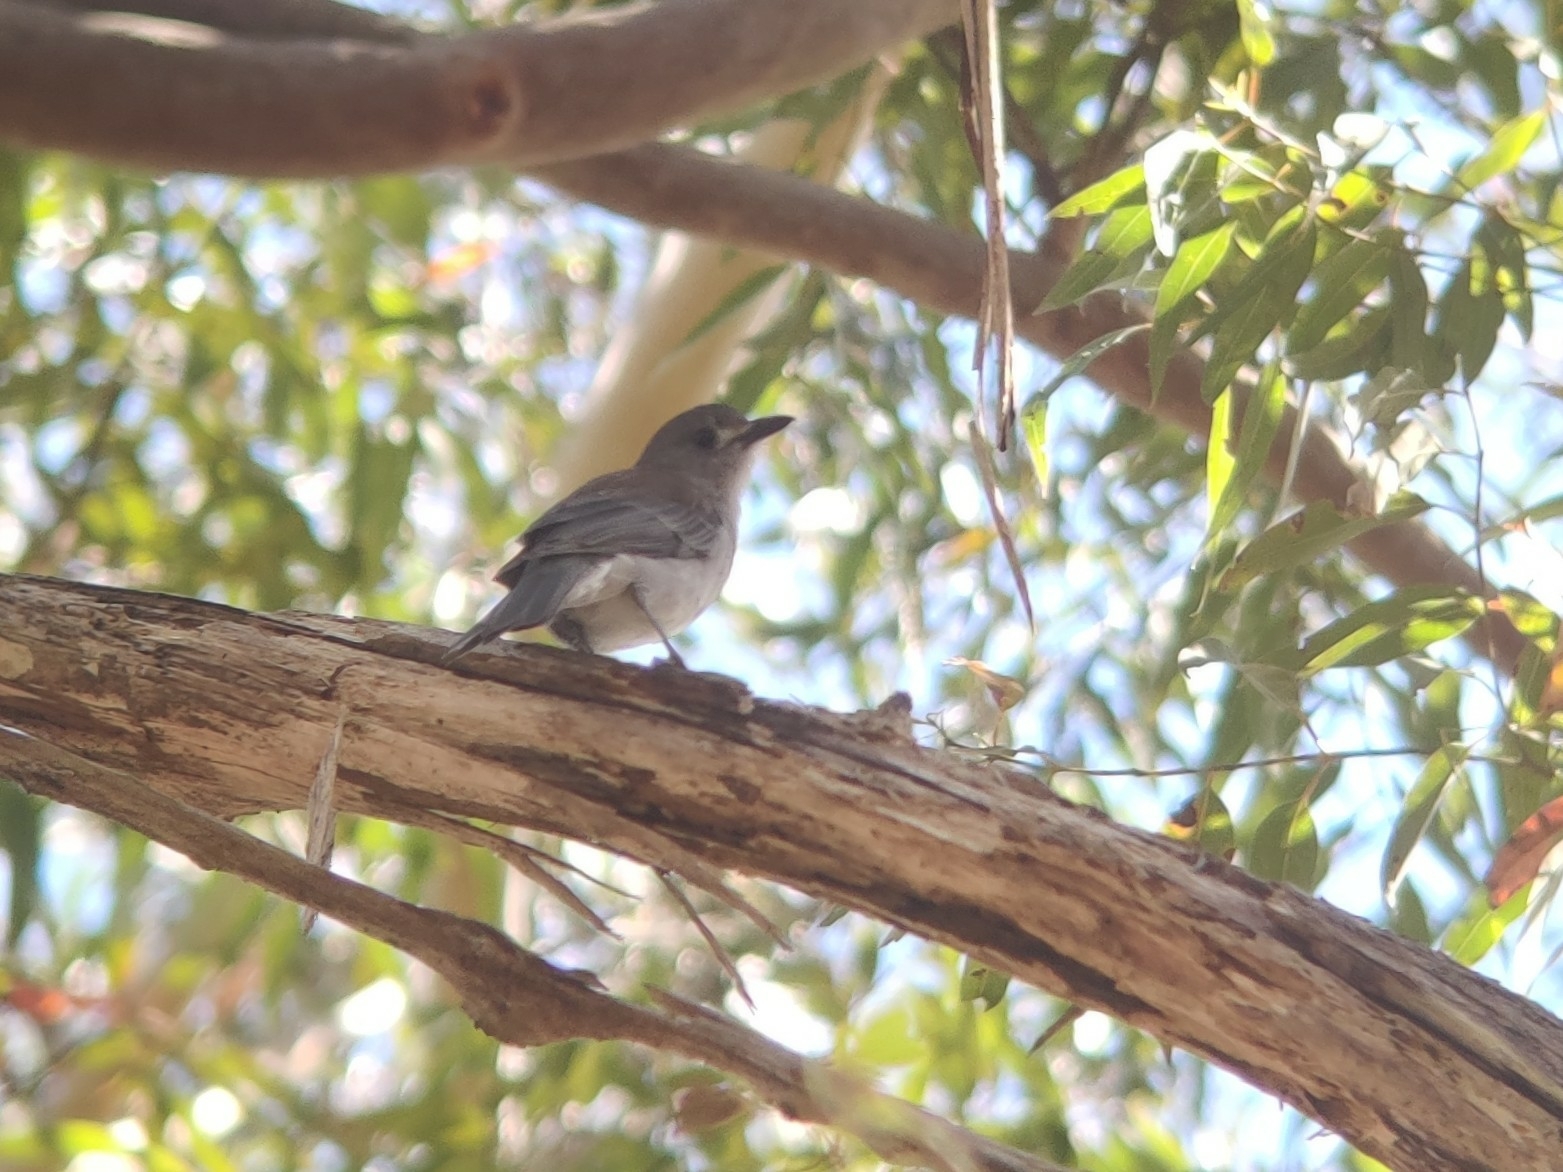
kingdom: Animalia
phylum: Chordata
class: Aves
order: Passeriformes
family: Pachycephalidae
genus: Colluricincla
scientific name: Colluricincla harmonica
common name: Grey shrikethrush
